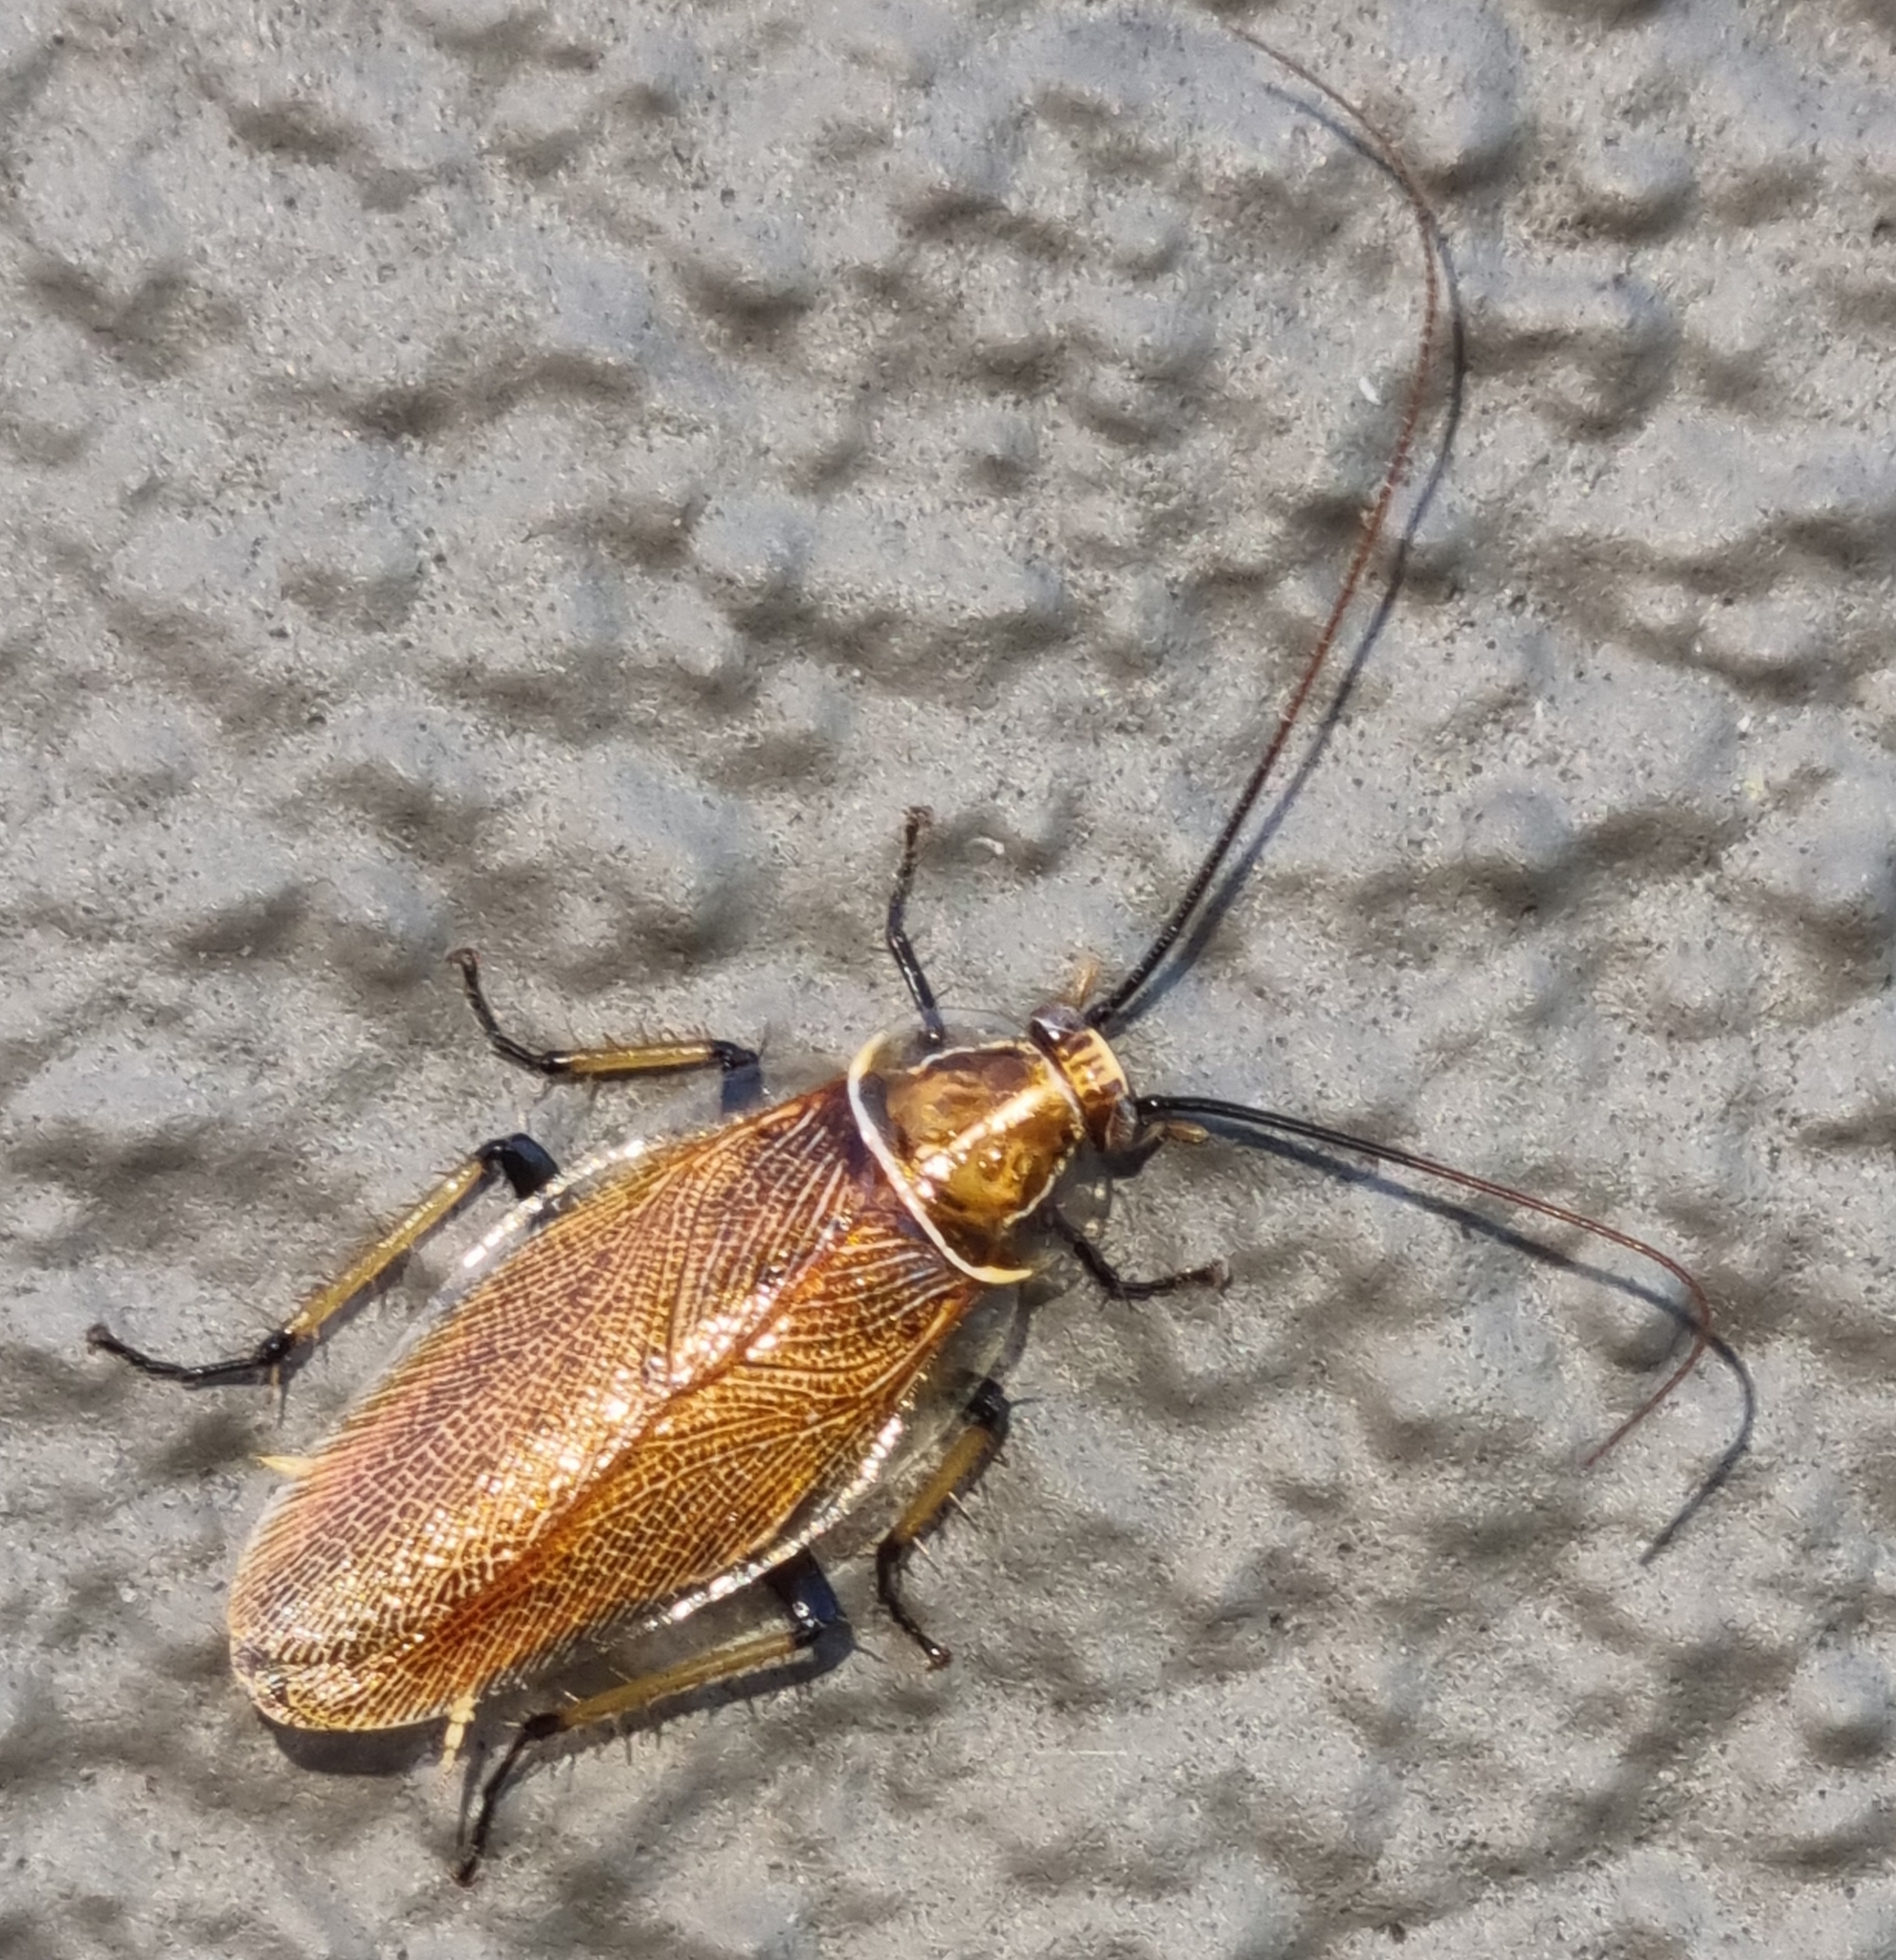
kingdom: Animalia
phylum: Arthropoda
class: Insecta
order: Blattodea
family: Ectobiidae
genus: Balta
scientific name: Balta bicolor
